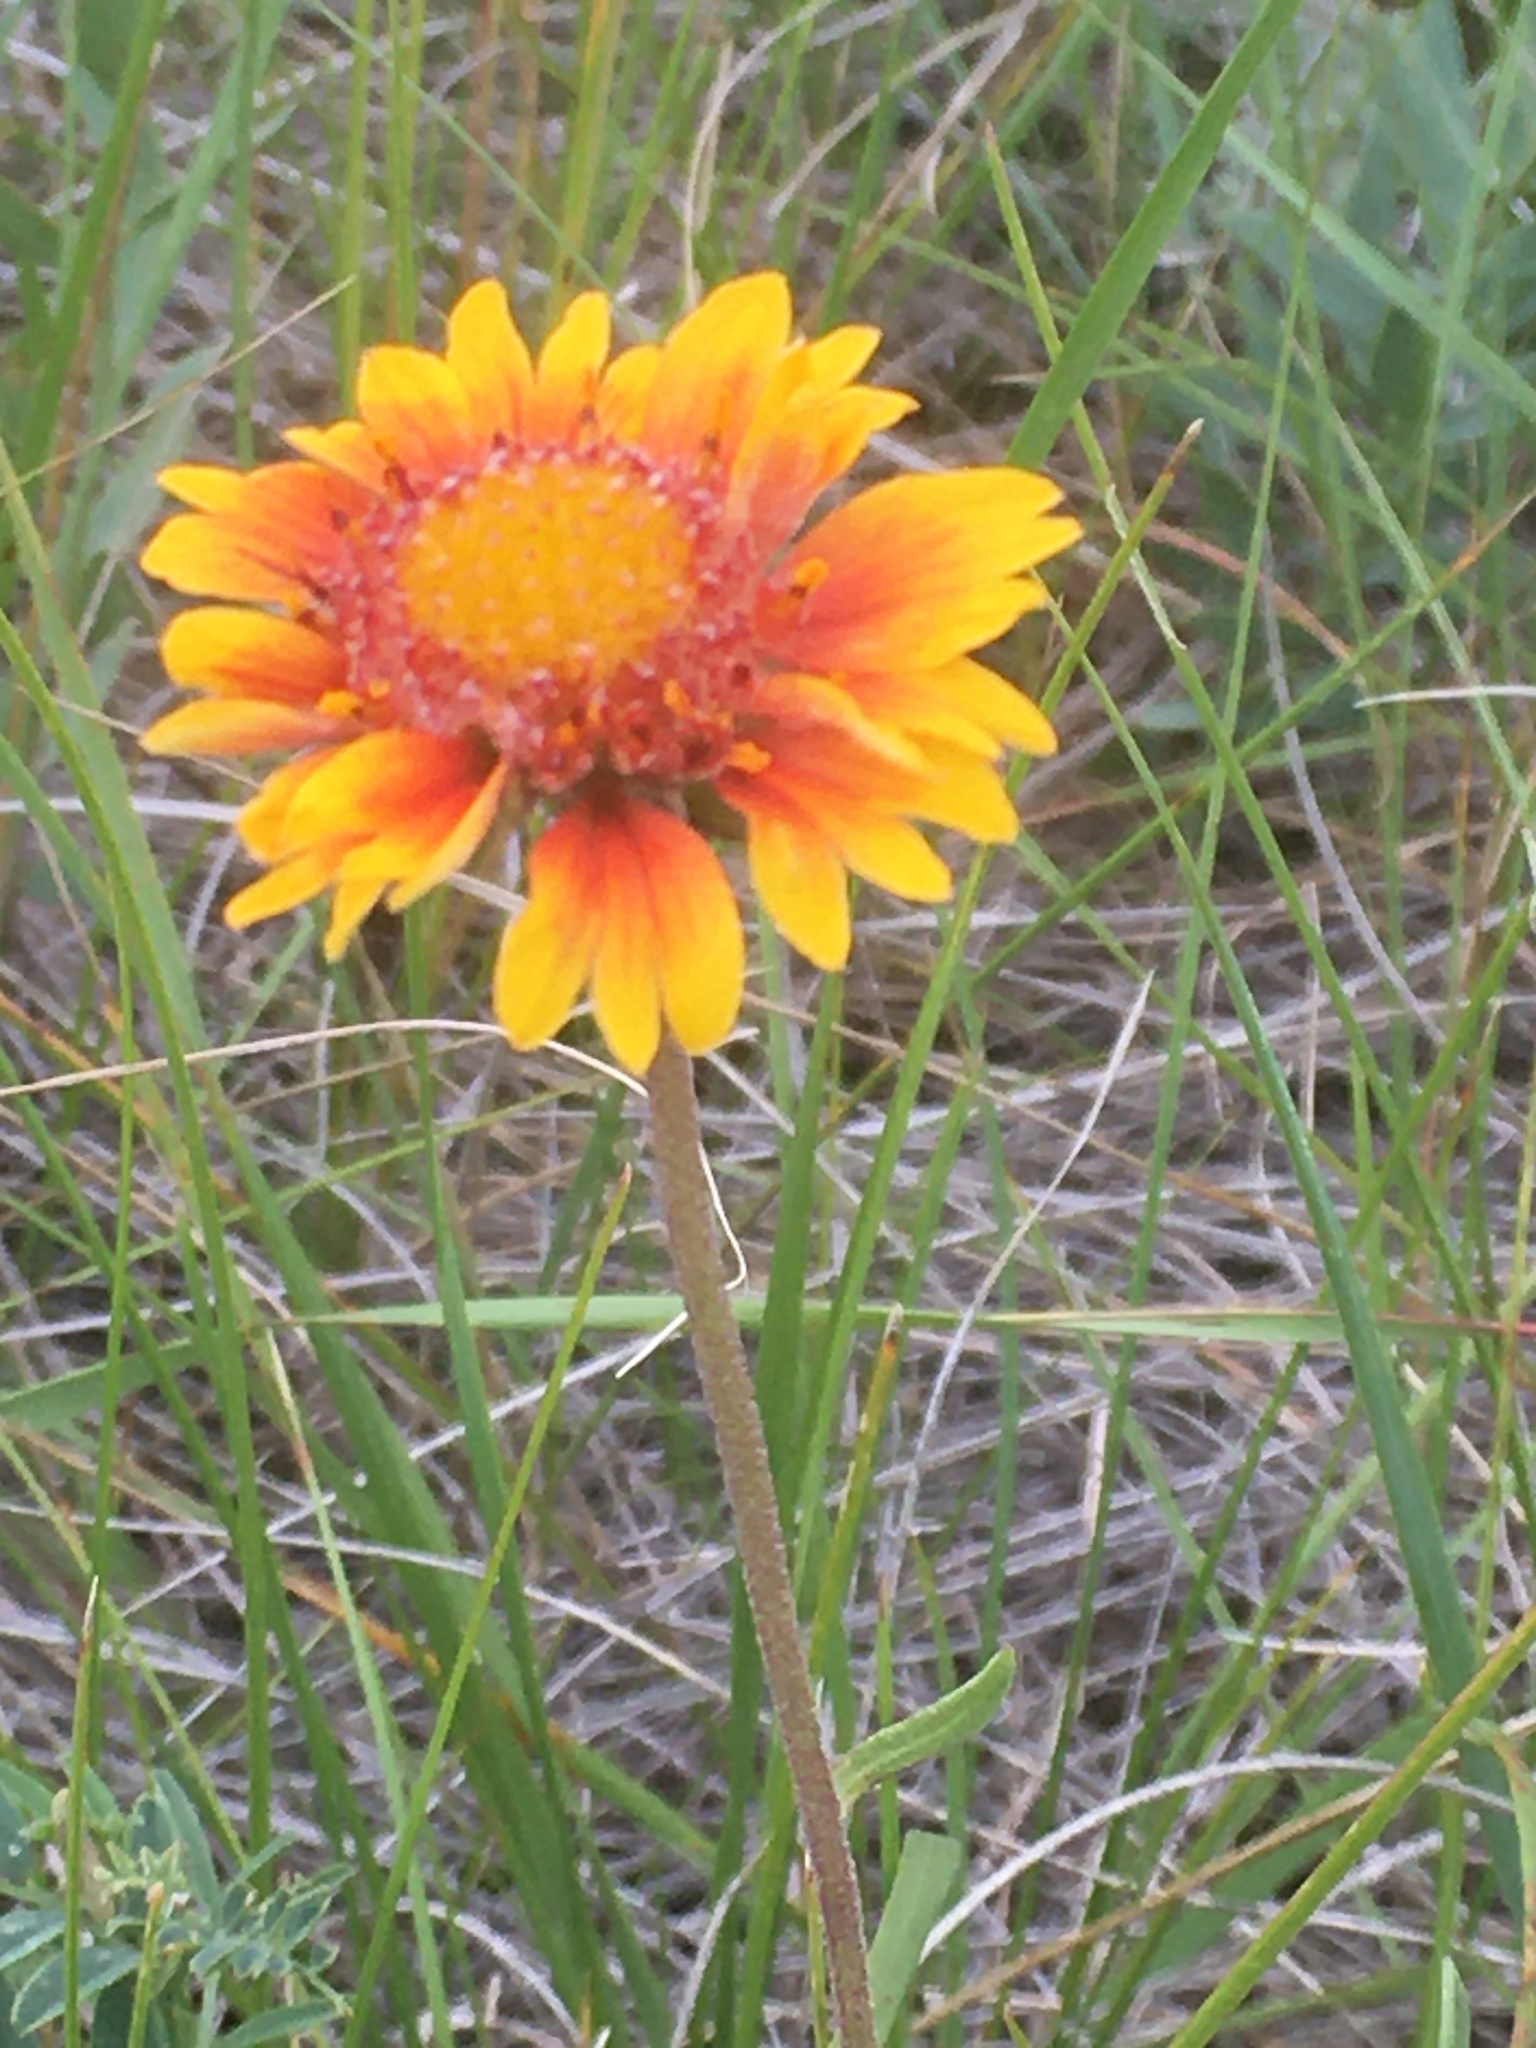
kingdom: Plantae
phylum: Tracheophyta
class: Magnoliopsida
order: Asterales
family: Asteraceae
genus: Gaillardia
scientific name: Gaillardia aristata
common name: Blanket-flower
